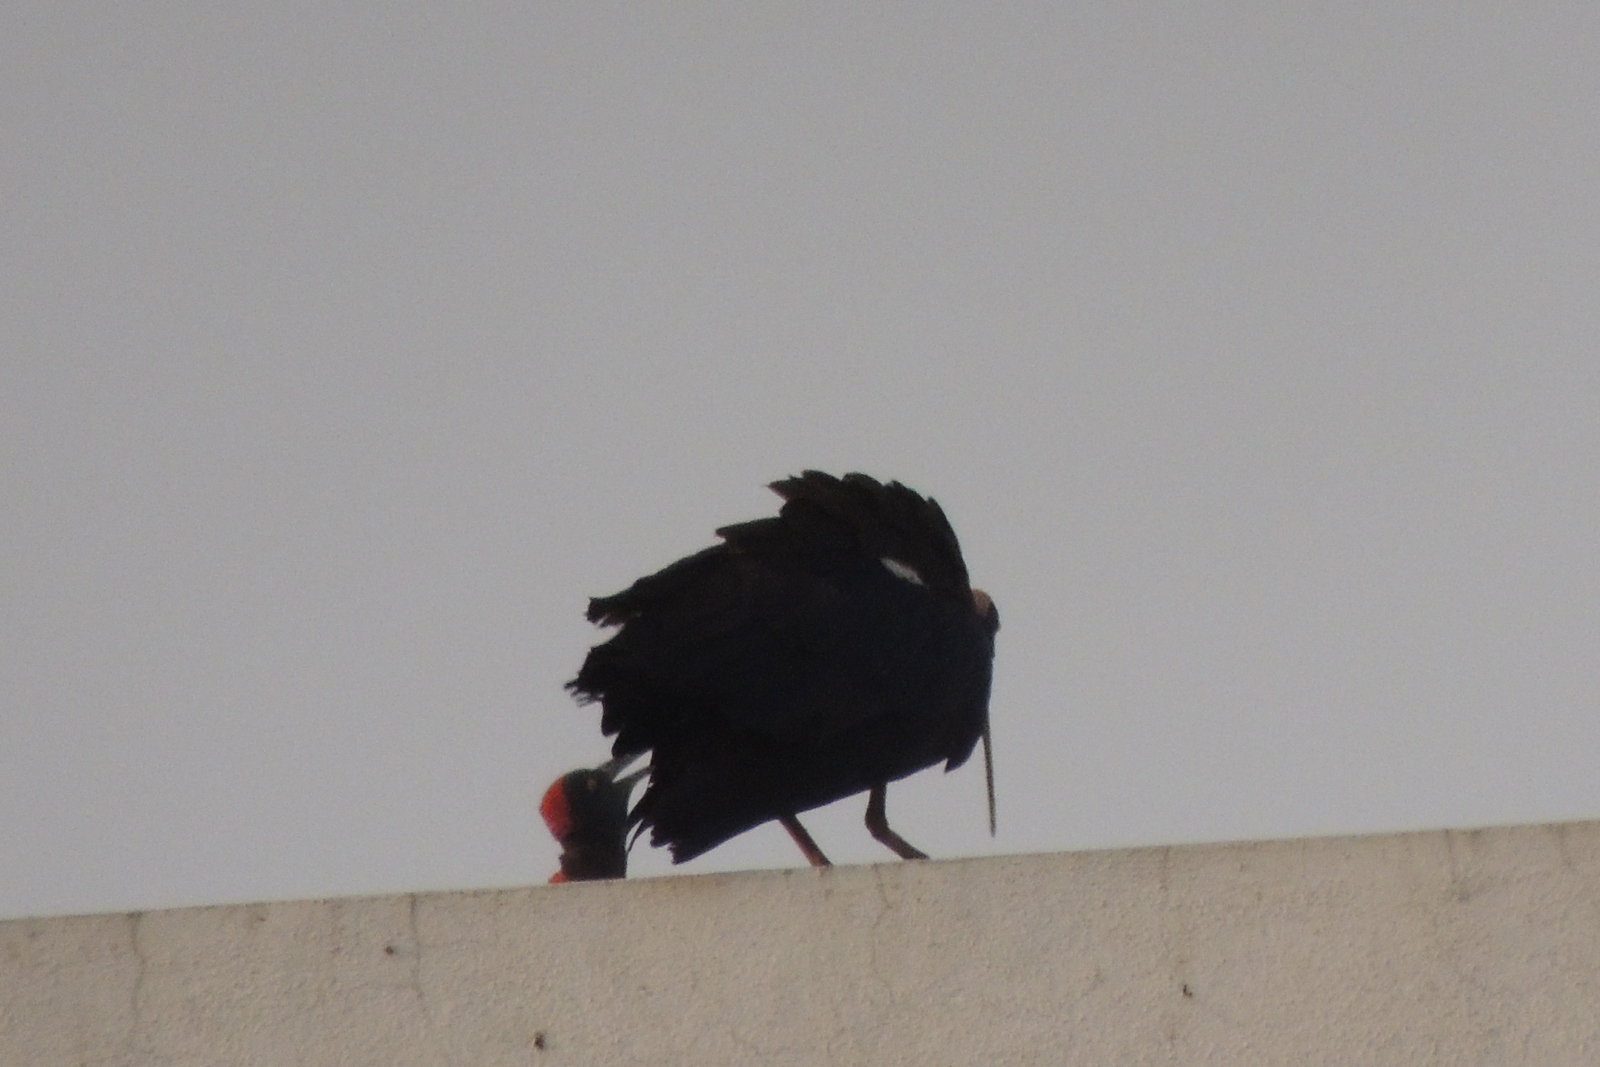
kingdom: Animalia
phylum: Chordata
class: Aves
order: Pelecaniformes
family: Threskiornithidae
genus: Pseudibis
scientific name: Pseudibis papillosa
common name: Red-naped ibis
